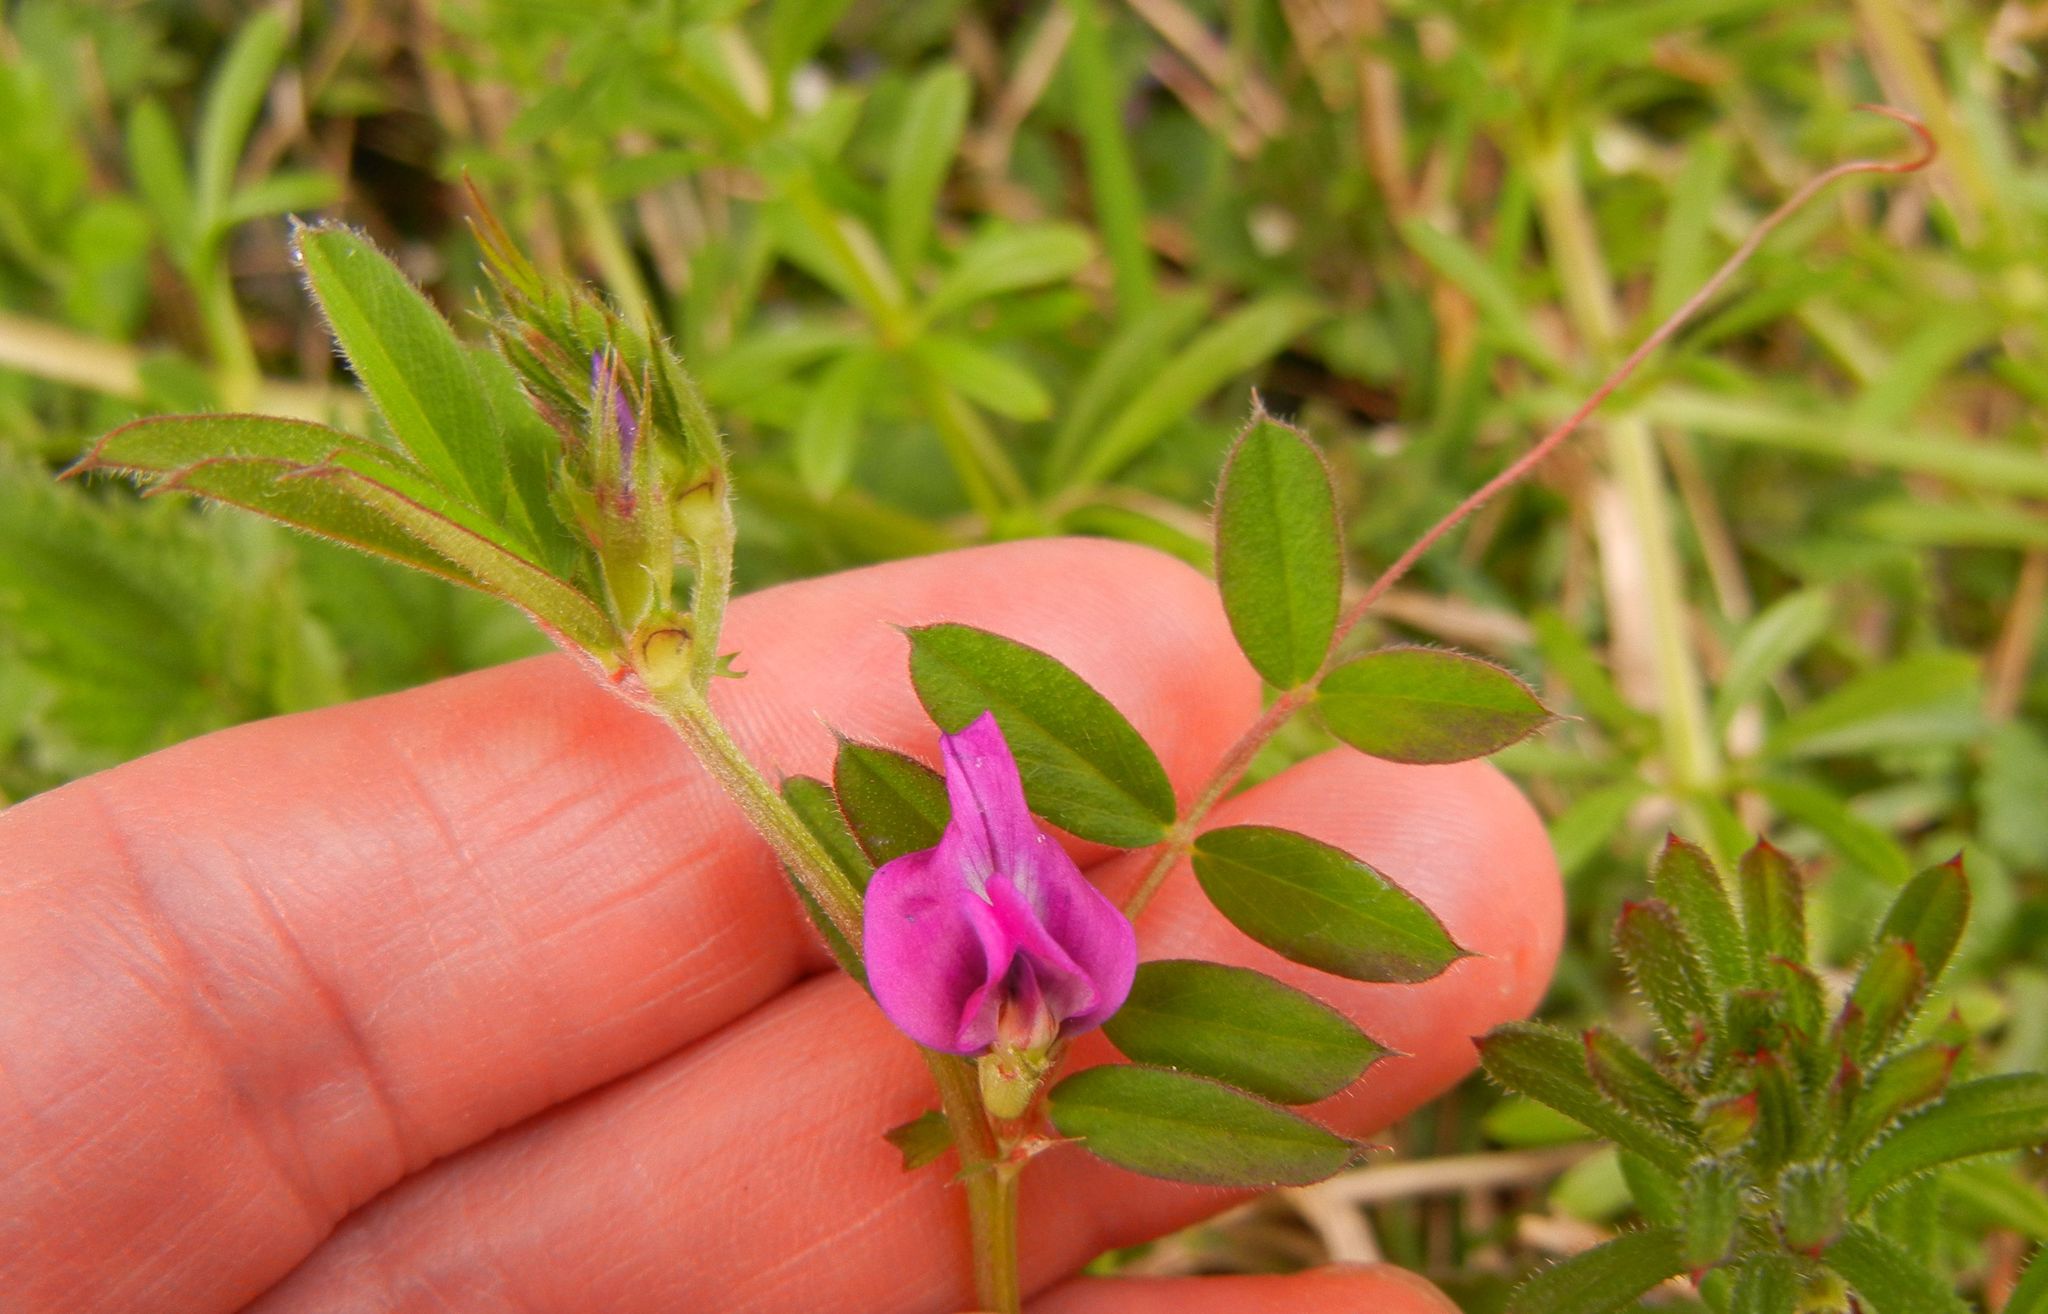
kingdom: Plantae
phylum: Tracheophyta
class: Magnoliopsida
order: Fabales
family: Fabaceae
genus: Vicia
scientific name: Vicia sativa
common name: Garden vetch
